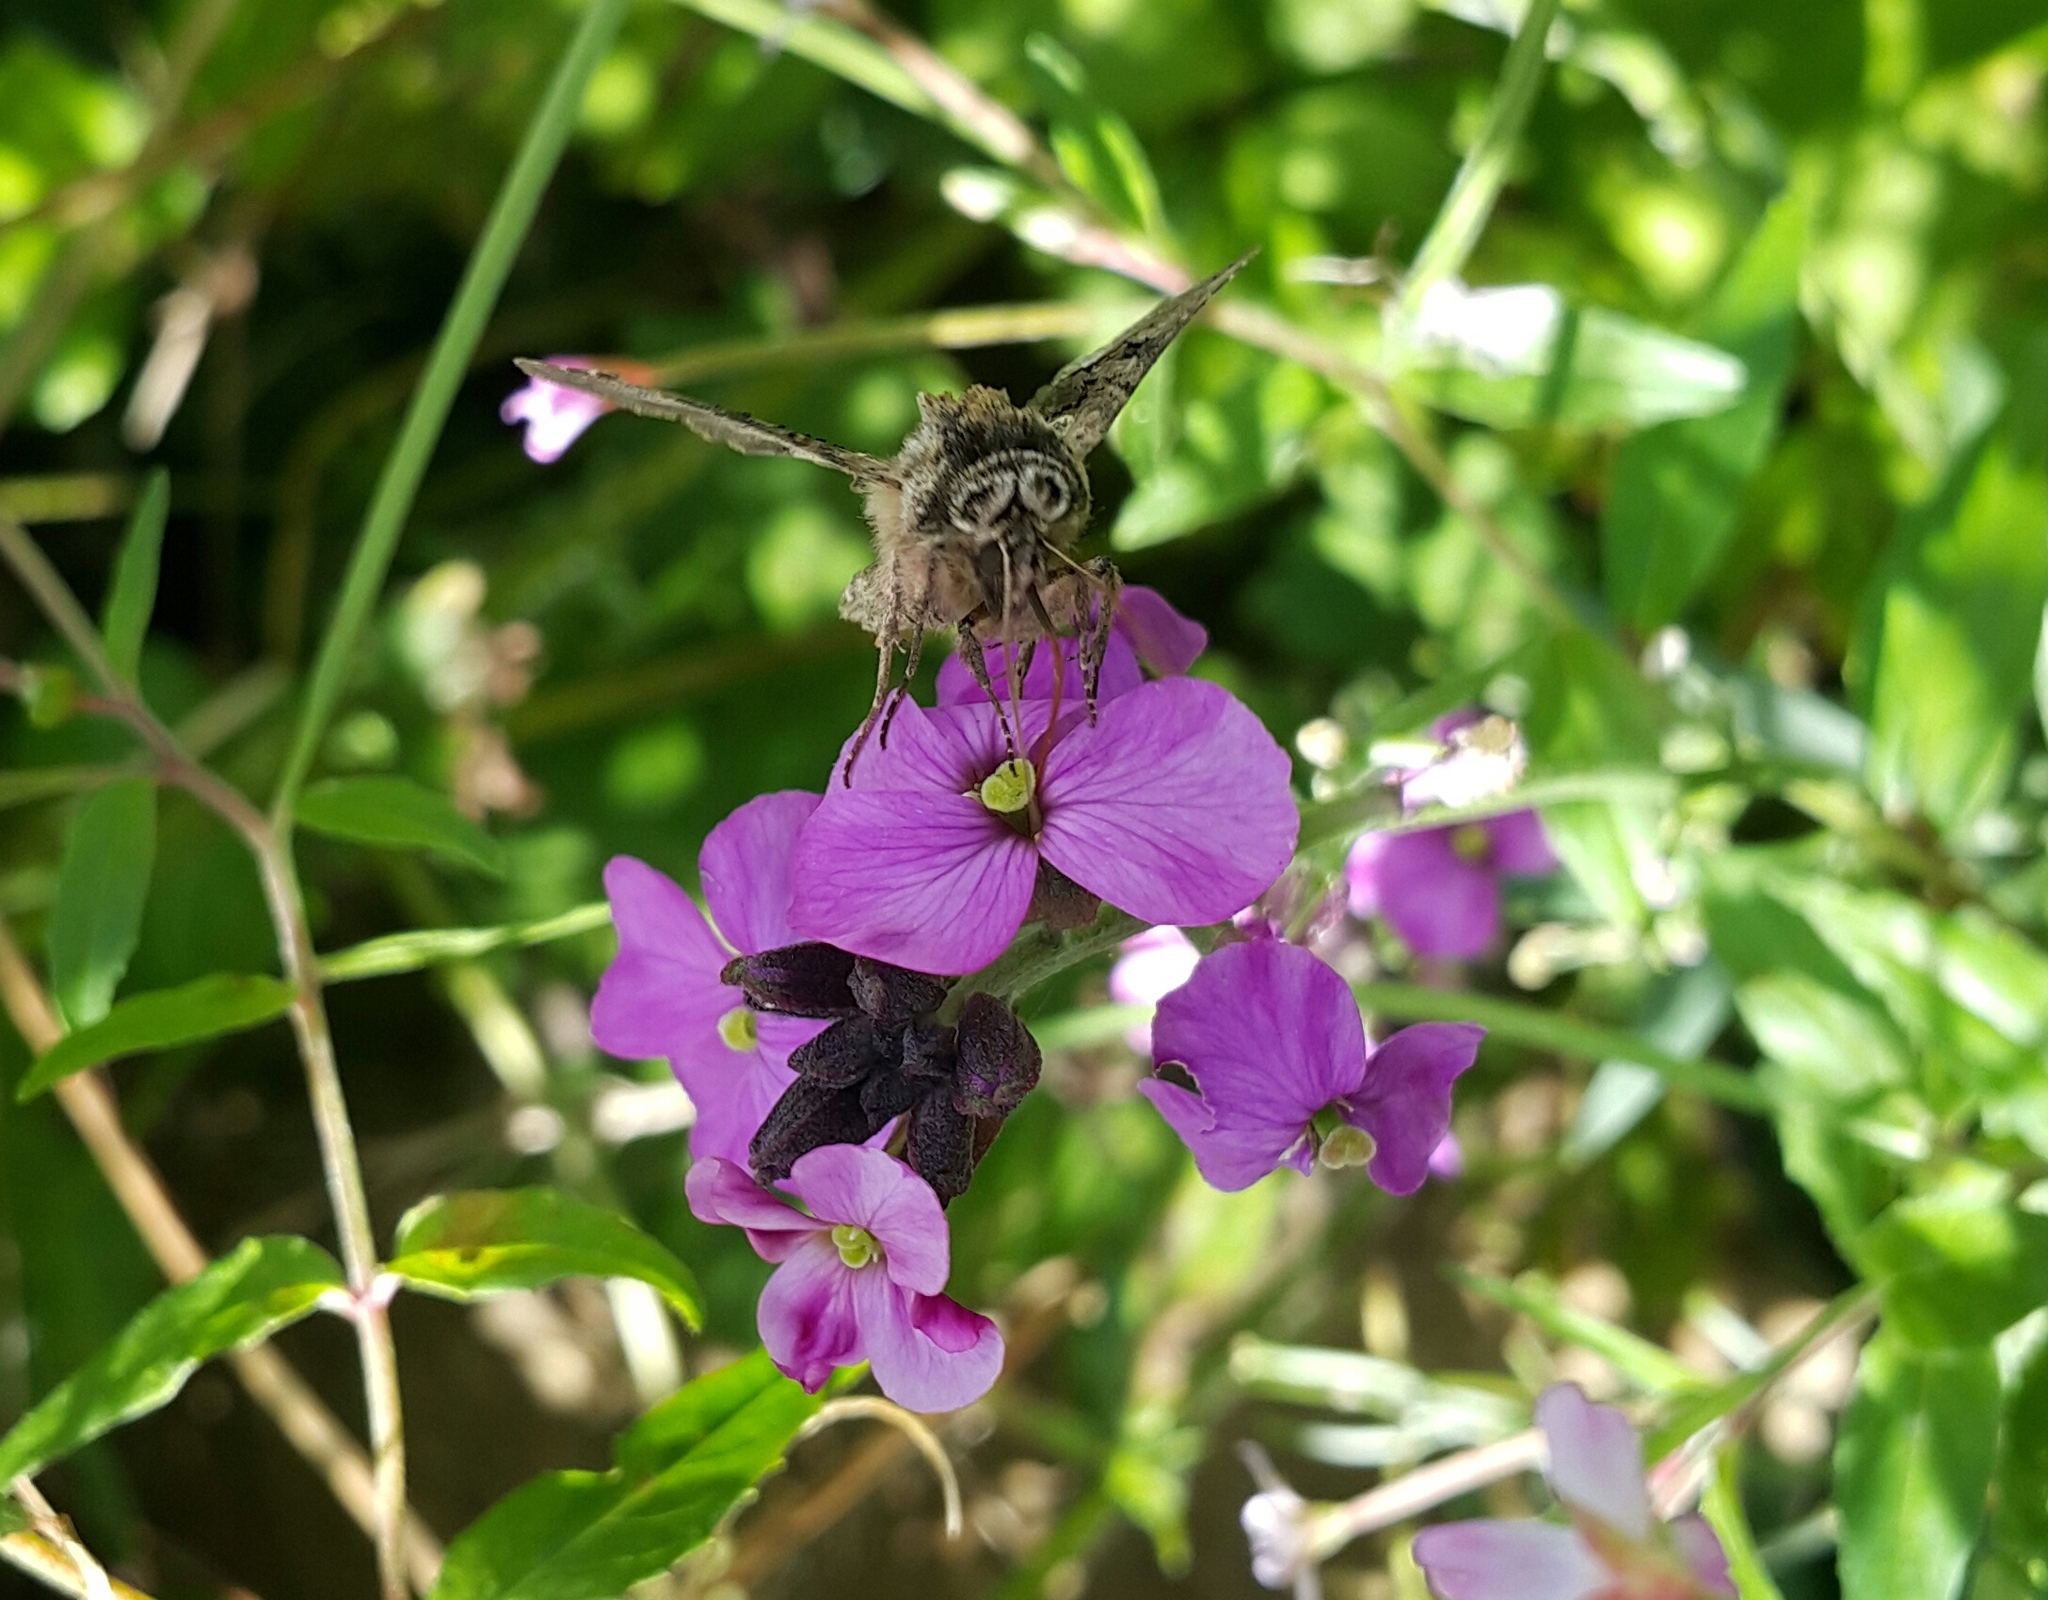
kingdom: Animalia
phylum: Arthropoda
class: Insecta
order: Lepidoptera
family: Noctuidae
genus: Abrostola
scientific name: Abrostola tripartita
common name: Spectacle
